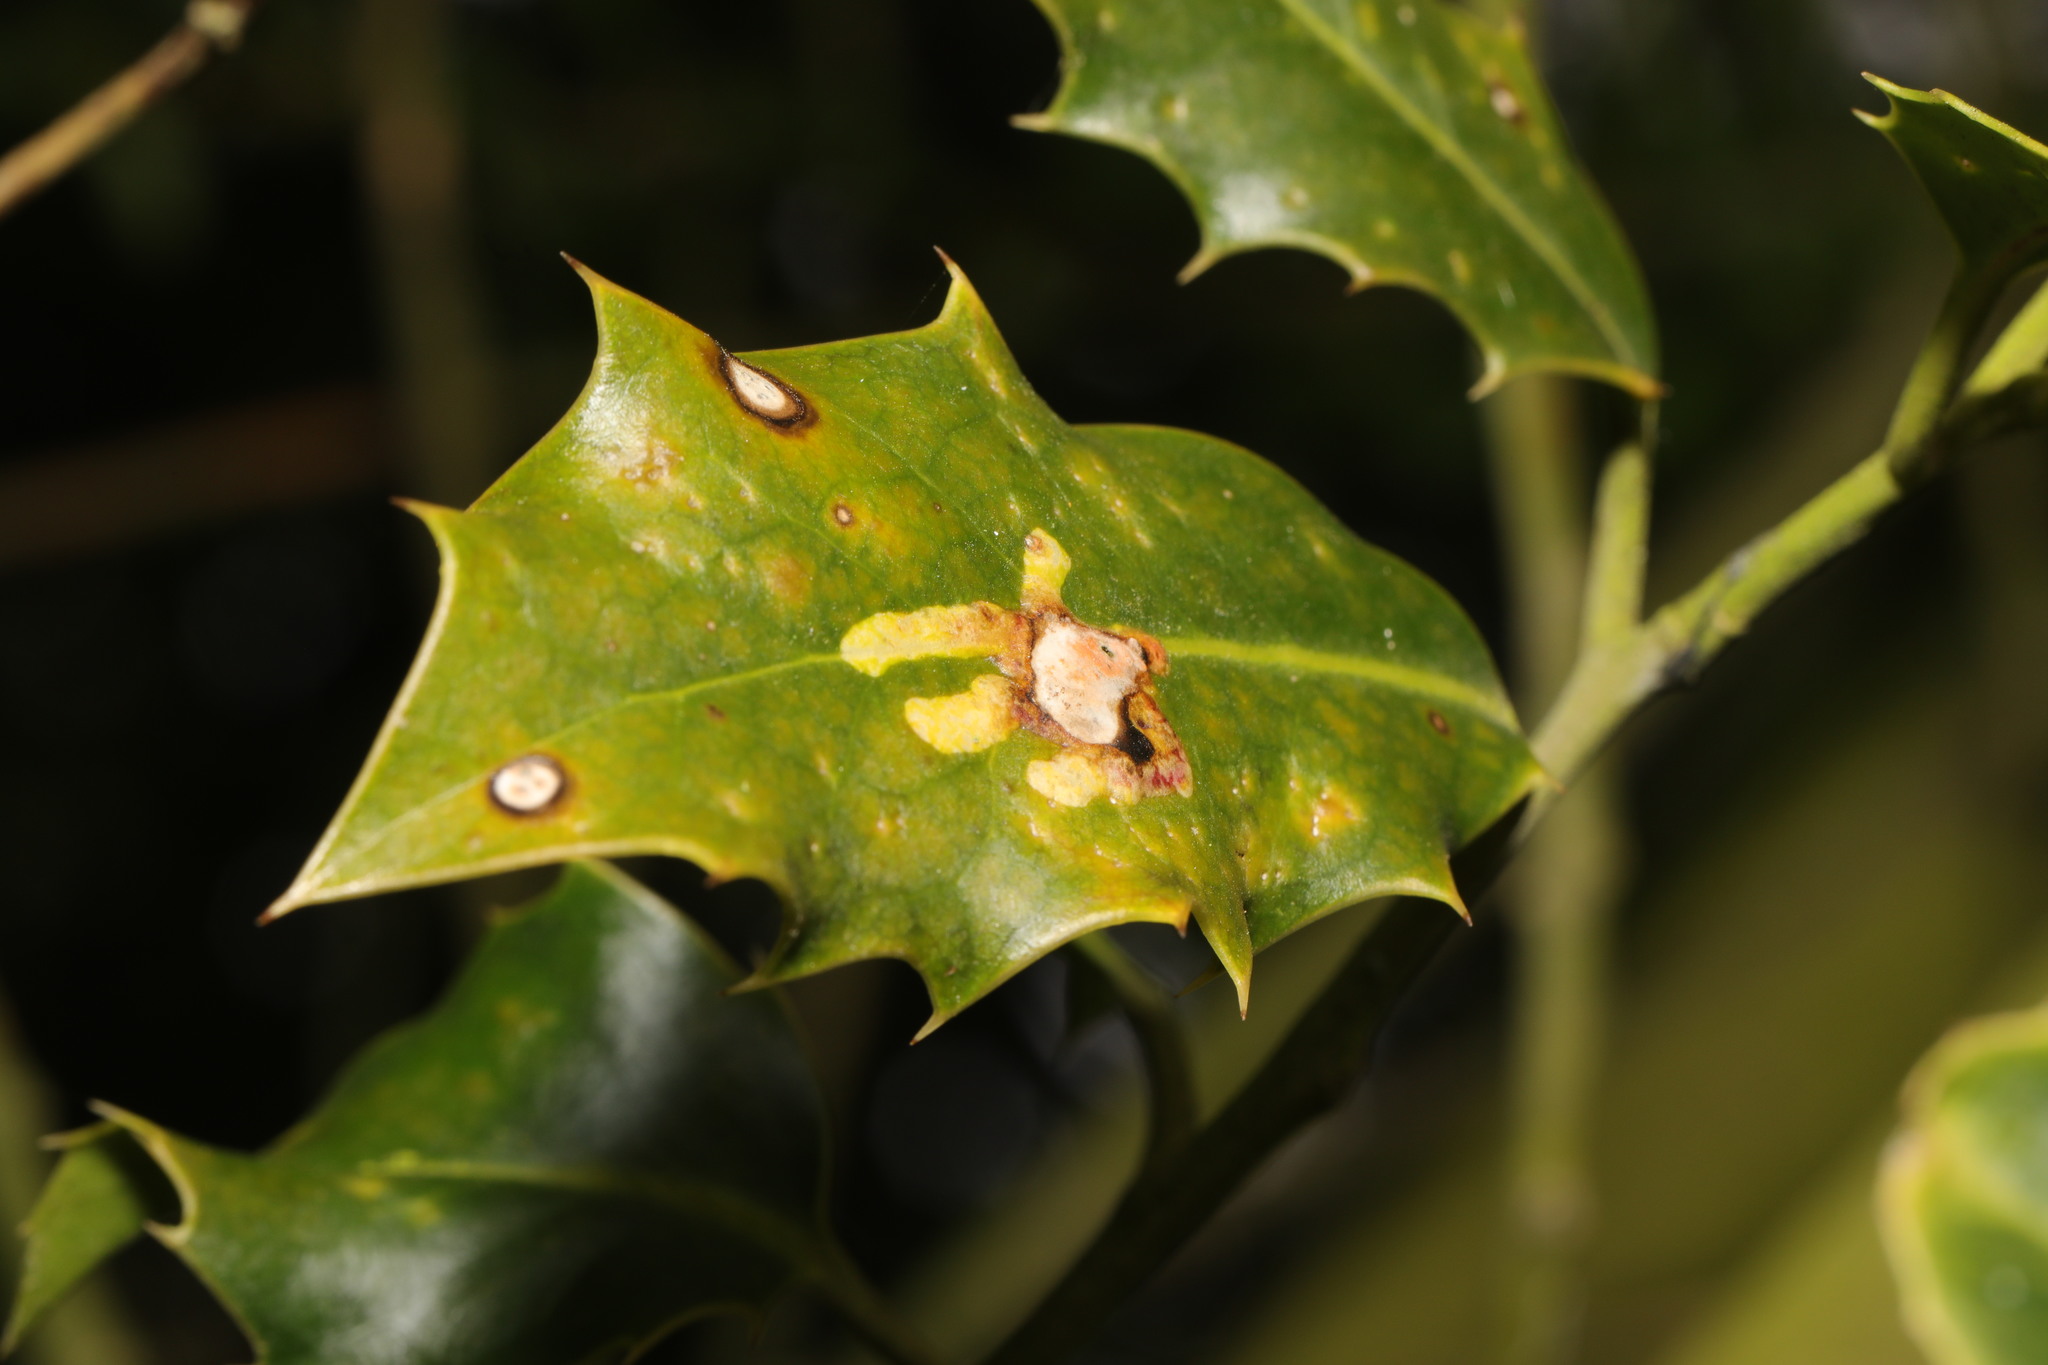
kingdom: Animalia
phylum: Arthropoda
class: Insecta
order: Diptera
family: Agromyzidae
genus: Phytomyza
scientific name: Phytomyza ilicis
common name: Holly leafminer
